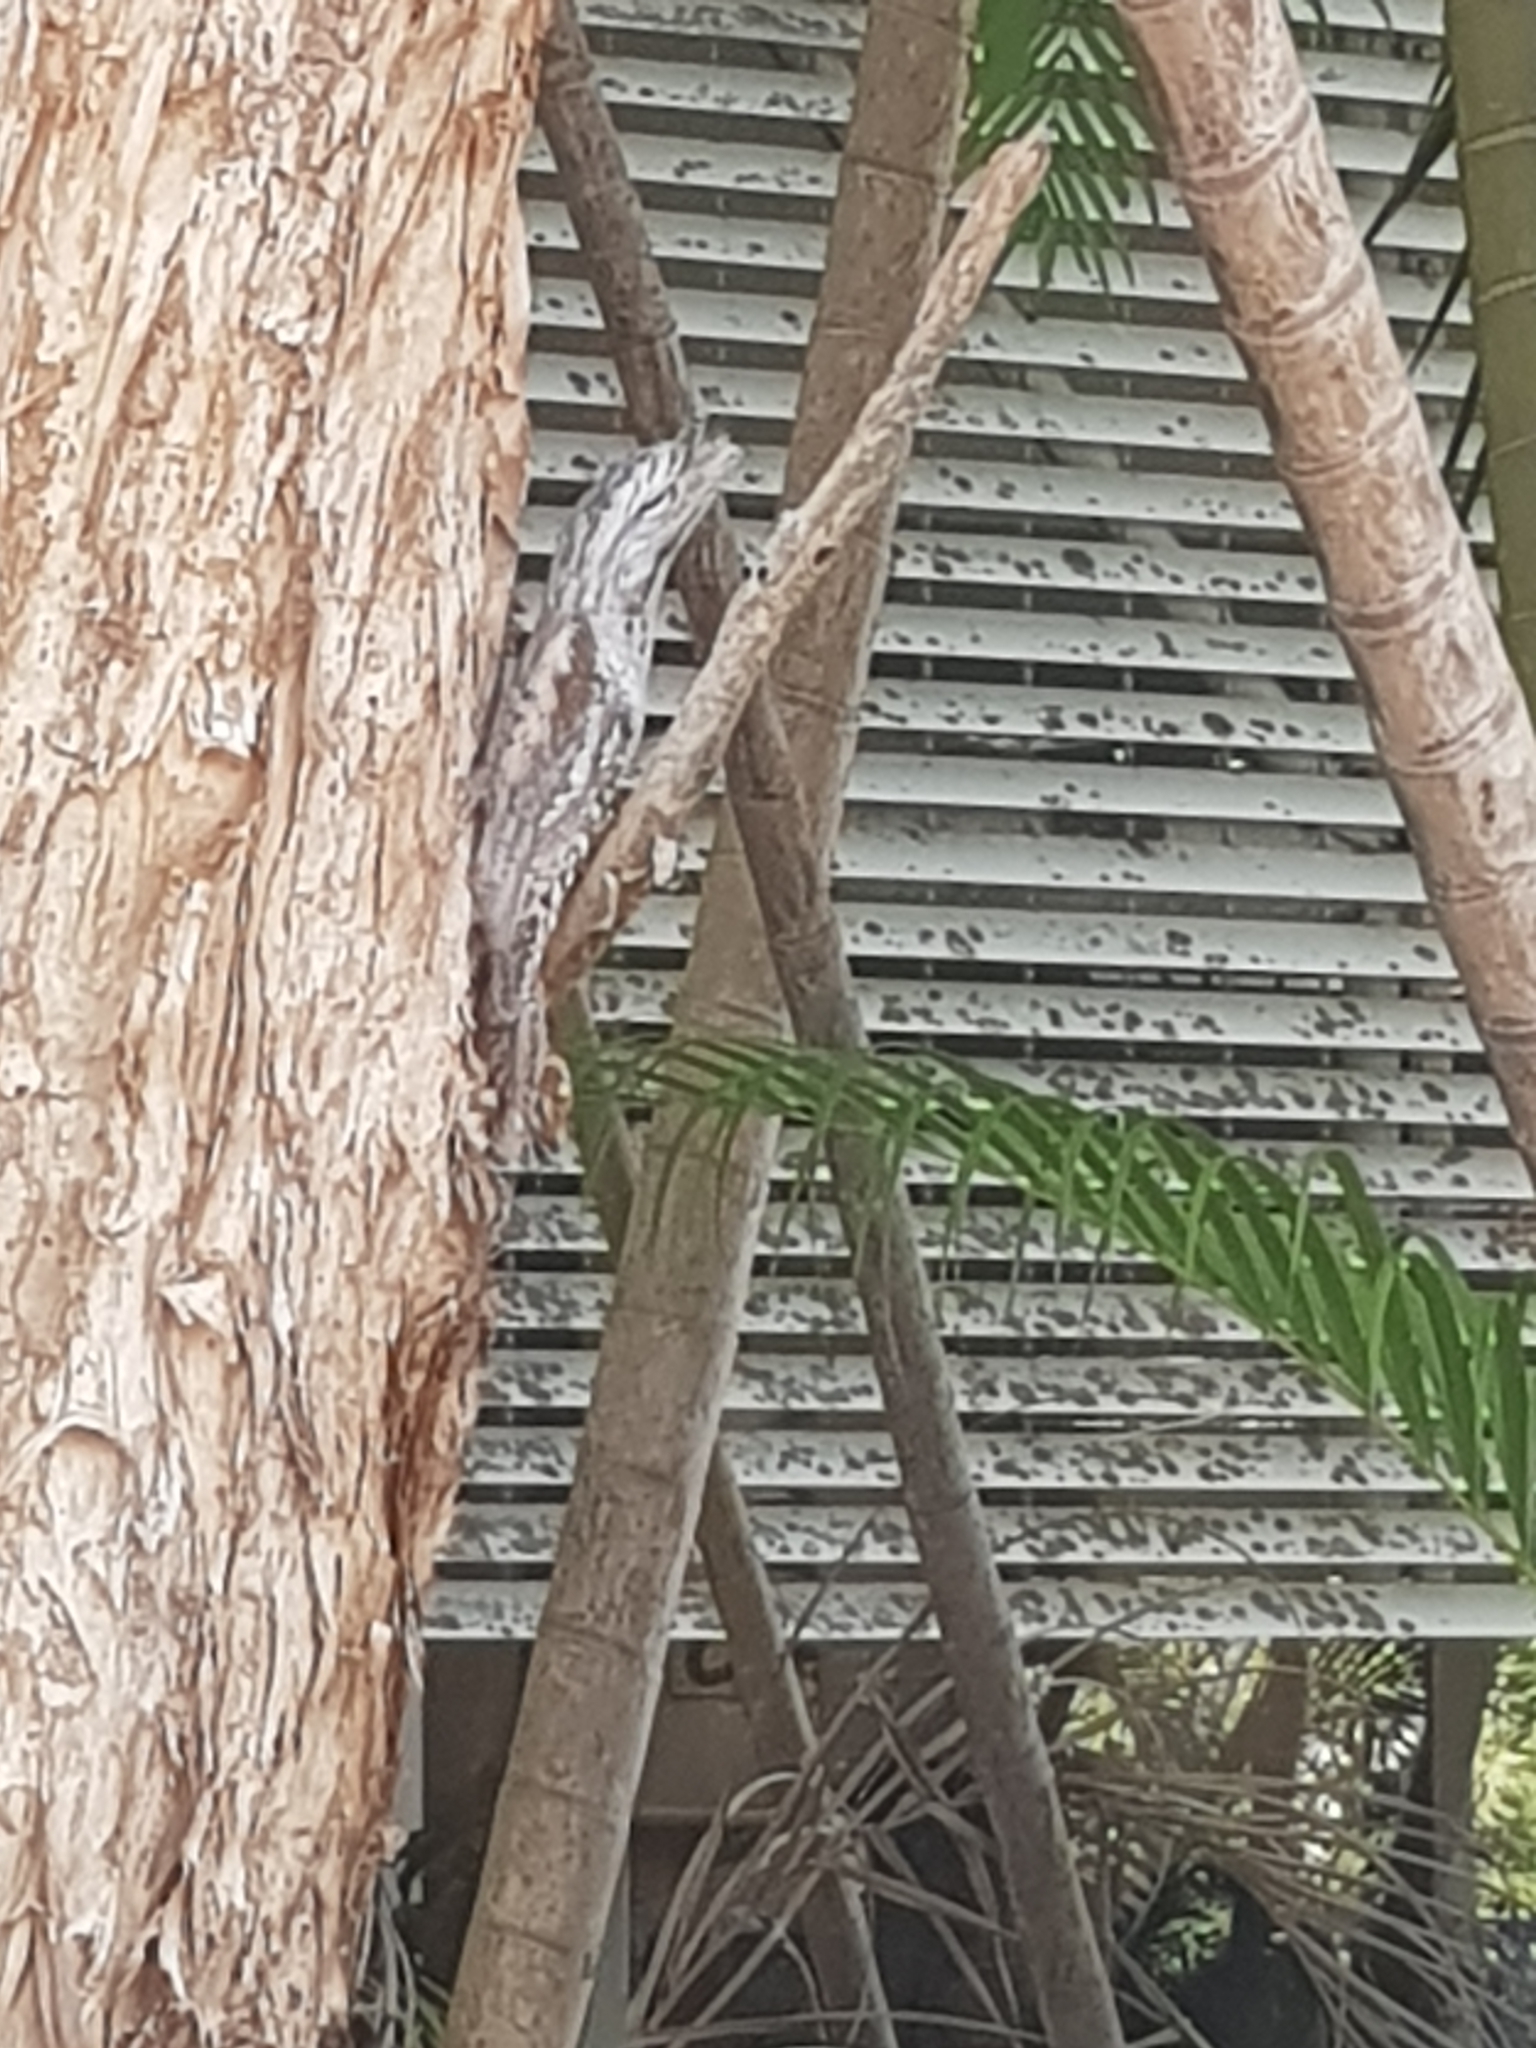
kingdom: Animalia
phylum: Chordata
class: Aves
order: Caprimulgiformes
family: Podargidae
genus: Podargus
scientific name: Podargus strigoides
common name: Tawny frogmouth
